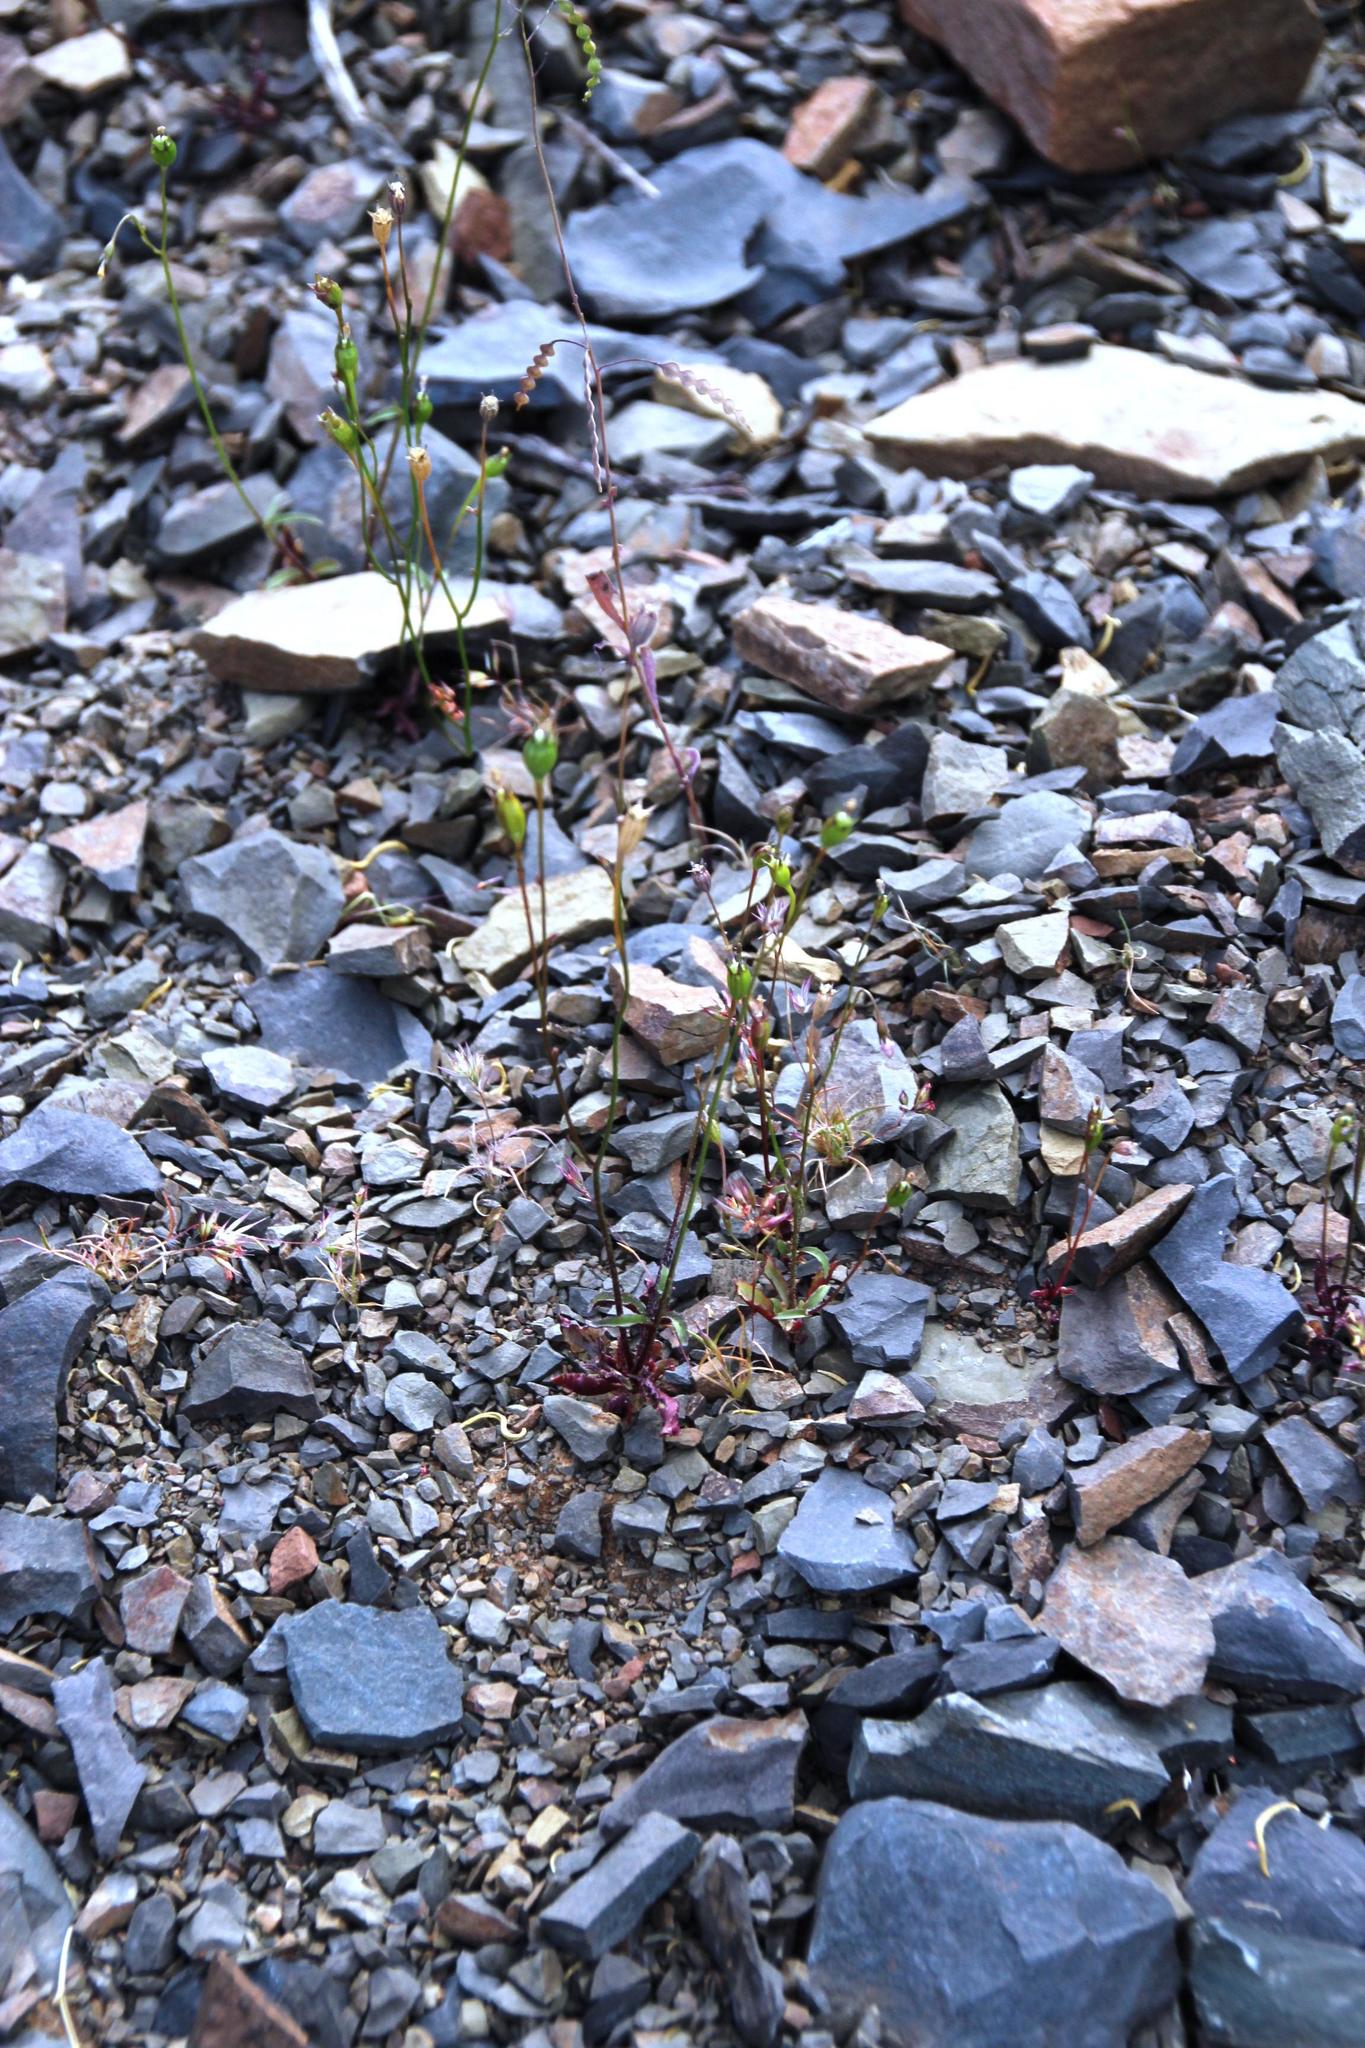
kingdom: Plantae
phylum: Tracheophyta
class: Magnoliopsida
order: Brassicales
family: Brassicaceae
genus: Heliophila
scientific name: Heliophila amplexicaulis
